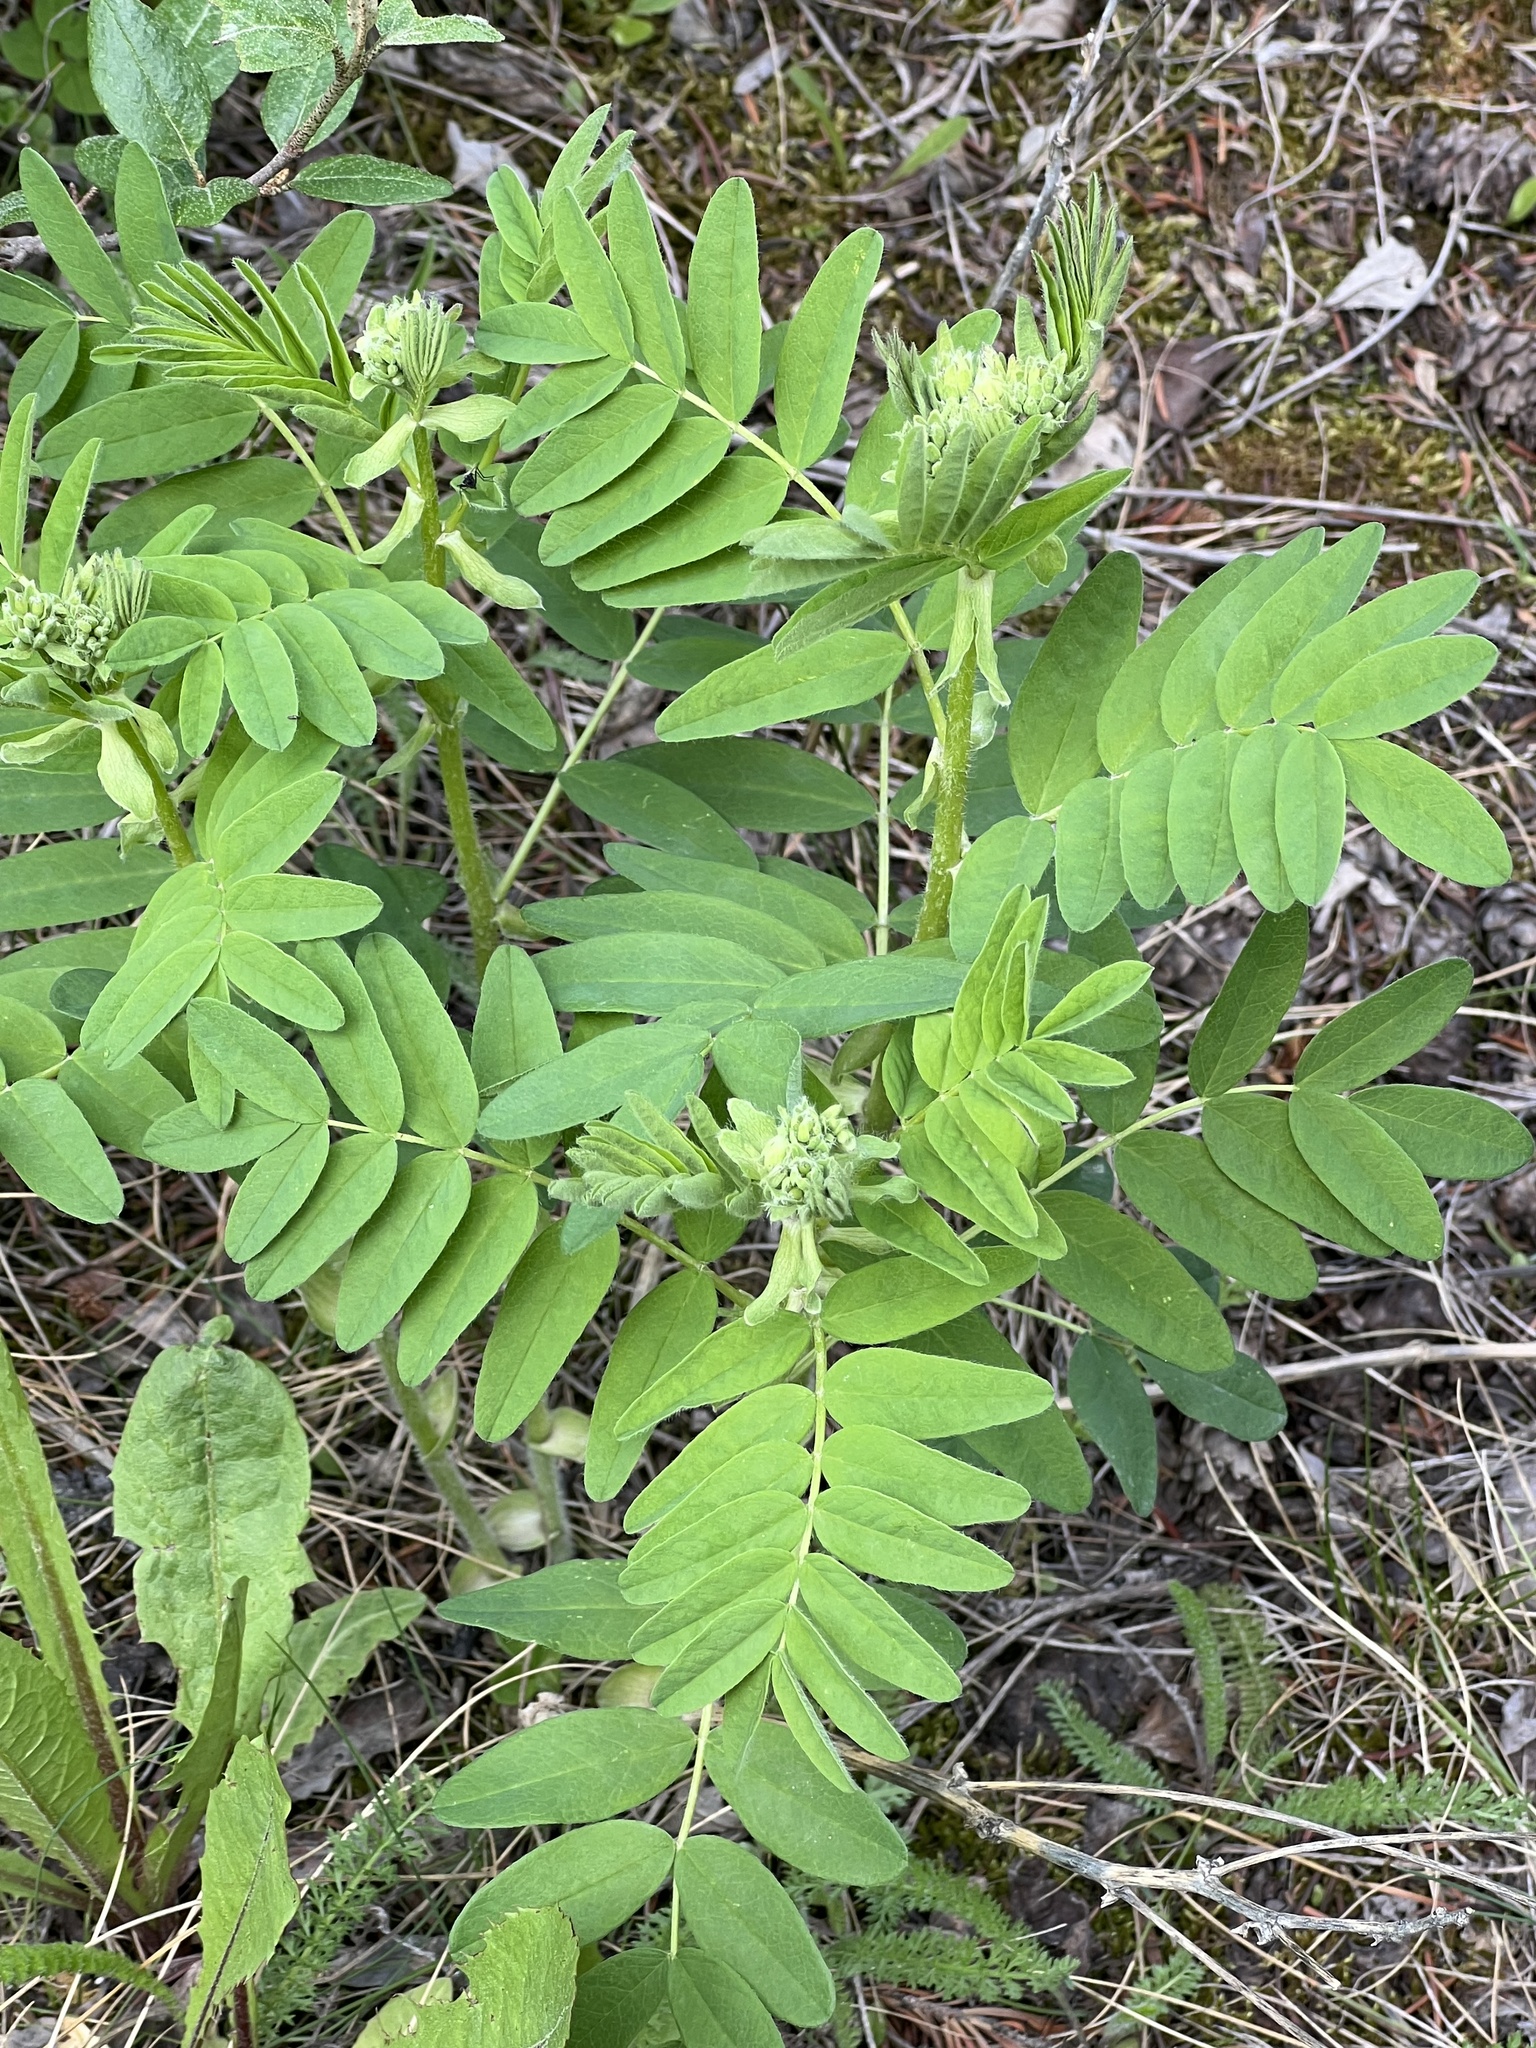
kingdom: Plantae
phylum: Tracheophyta
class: Magnoliopsida
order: Fabales
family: Fabaceae
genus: Astragalus
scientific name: Astragalus americanus
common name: American milk-vetch
